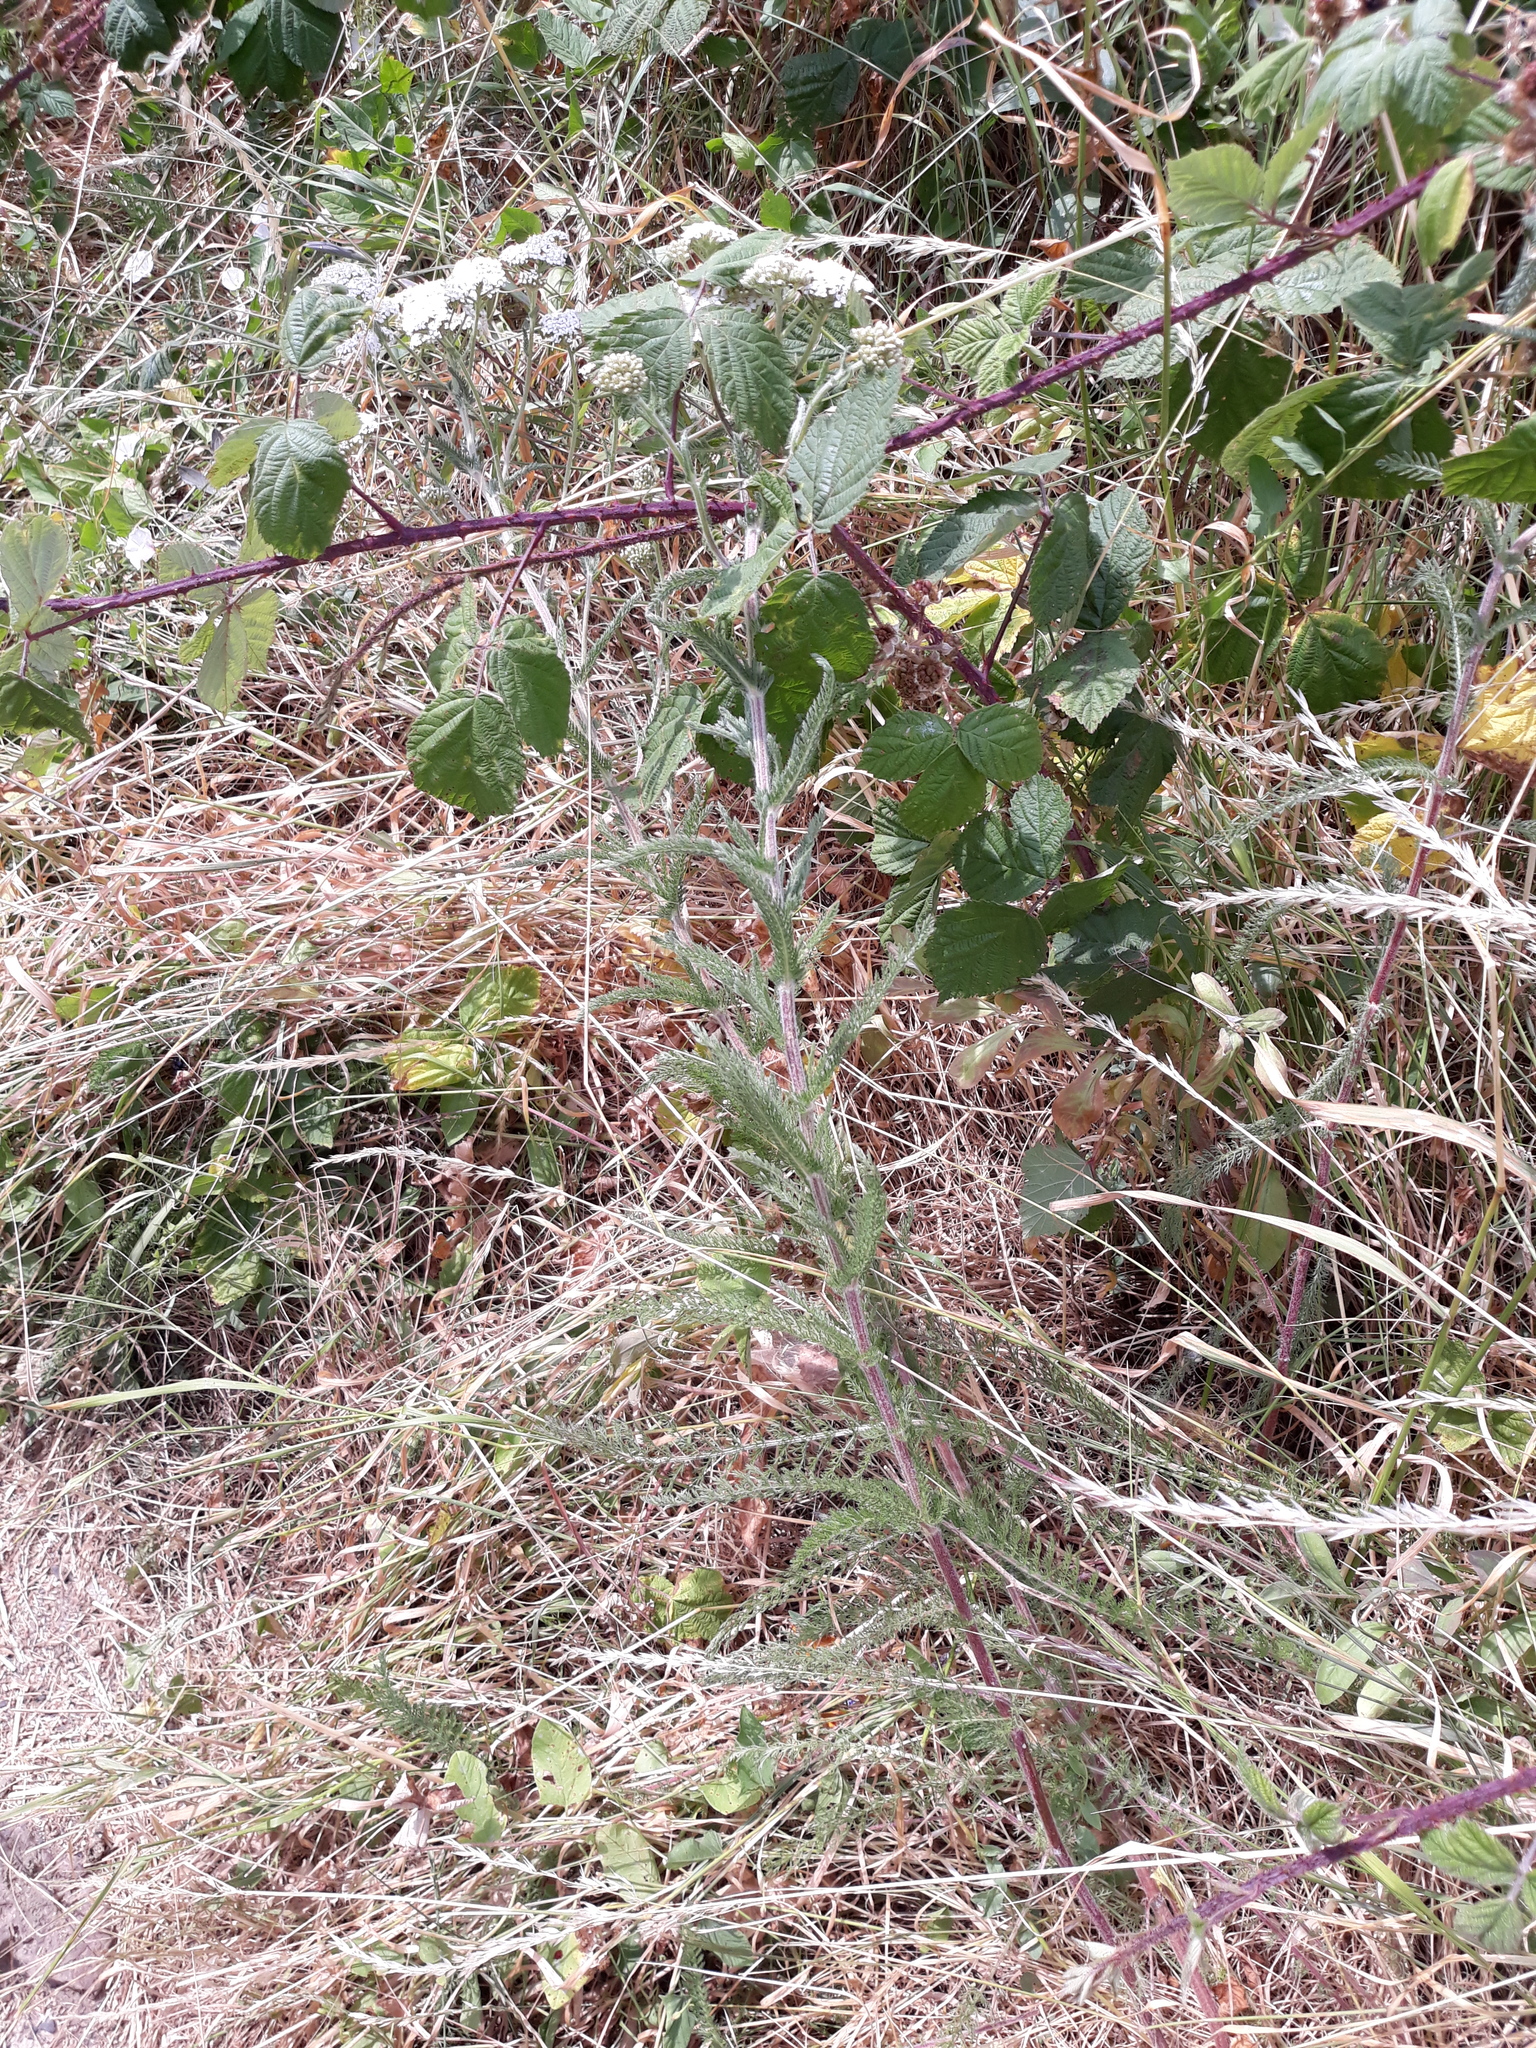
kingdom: Plantae
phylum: Tracheophyta
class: Magnoliopsida
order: Asterales
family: Asteraceae
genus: Achillea
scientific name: Achillea millefolium
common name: Yarrow
